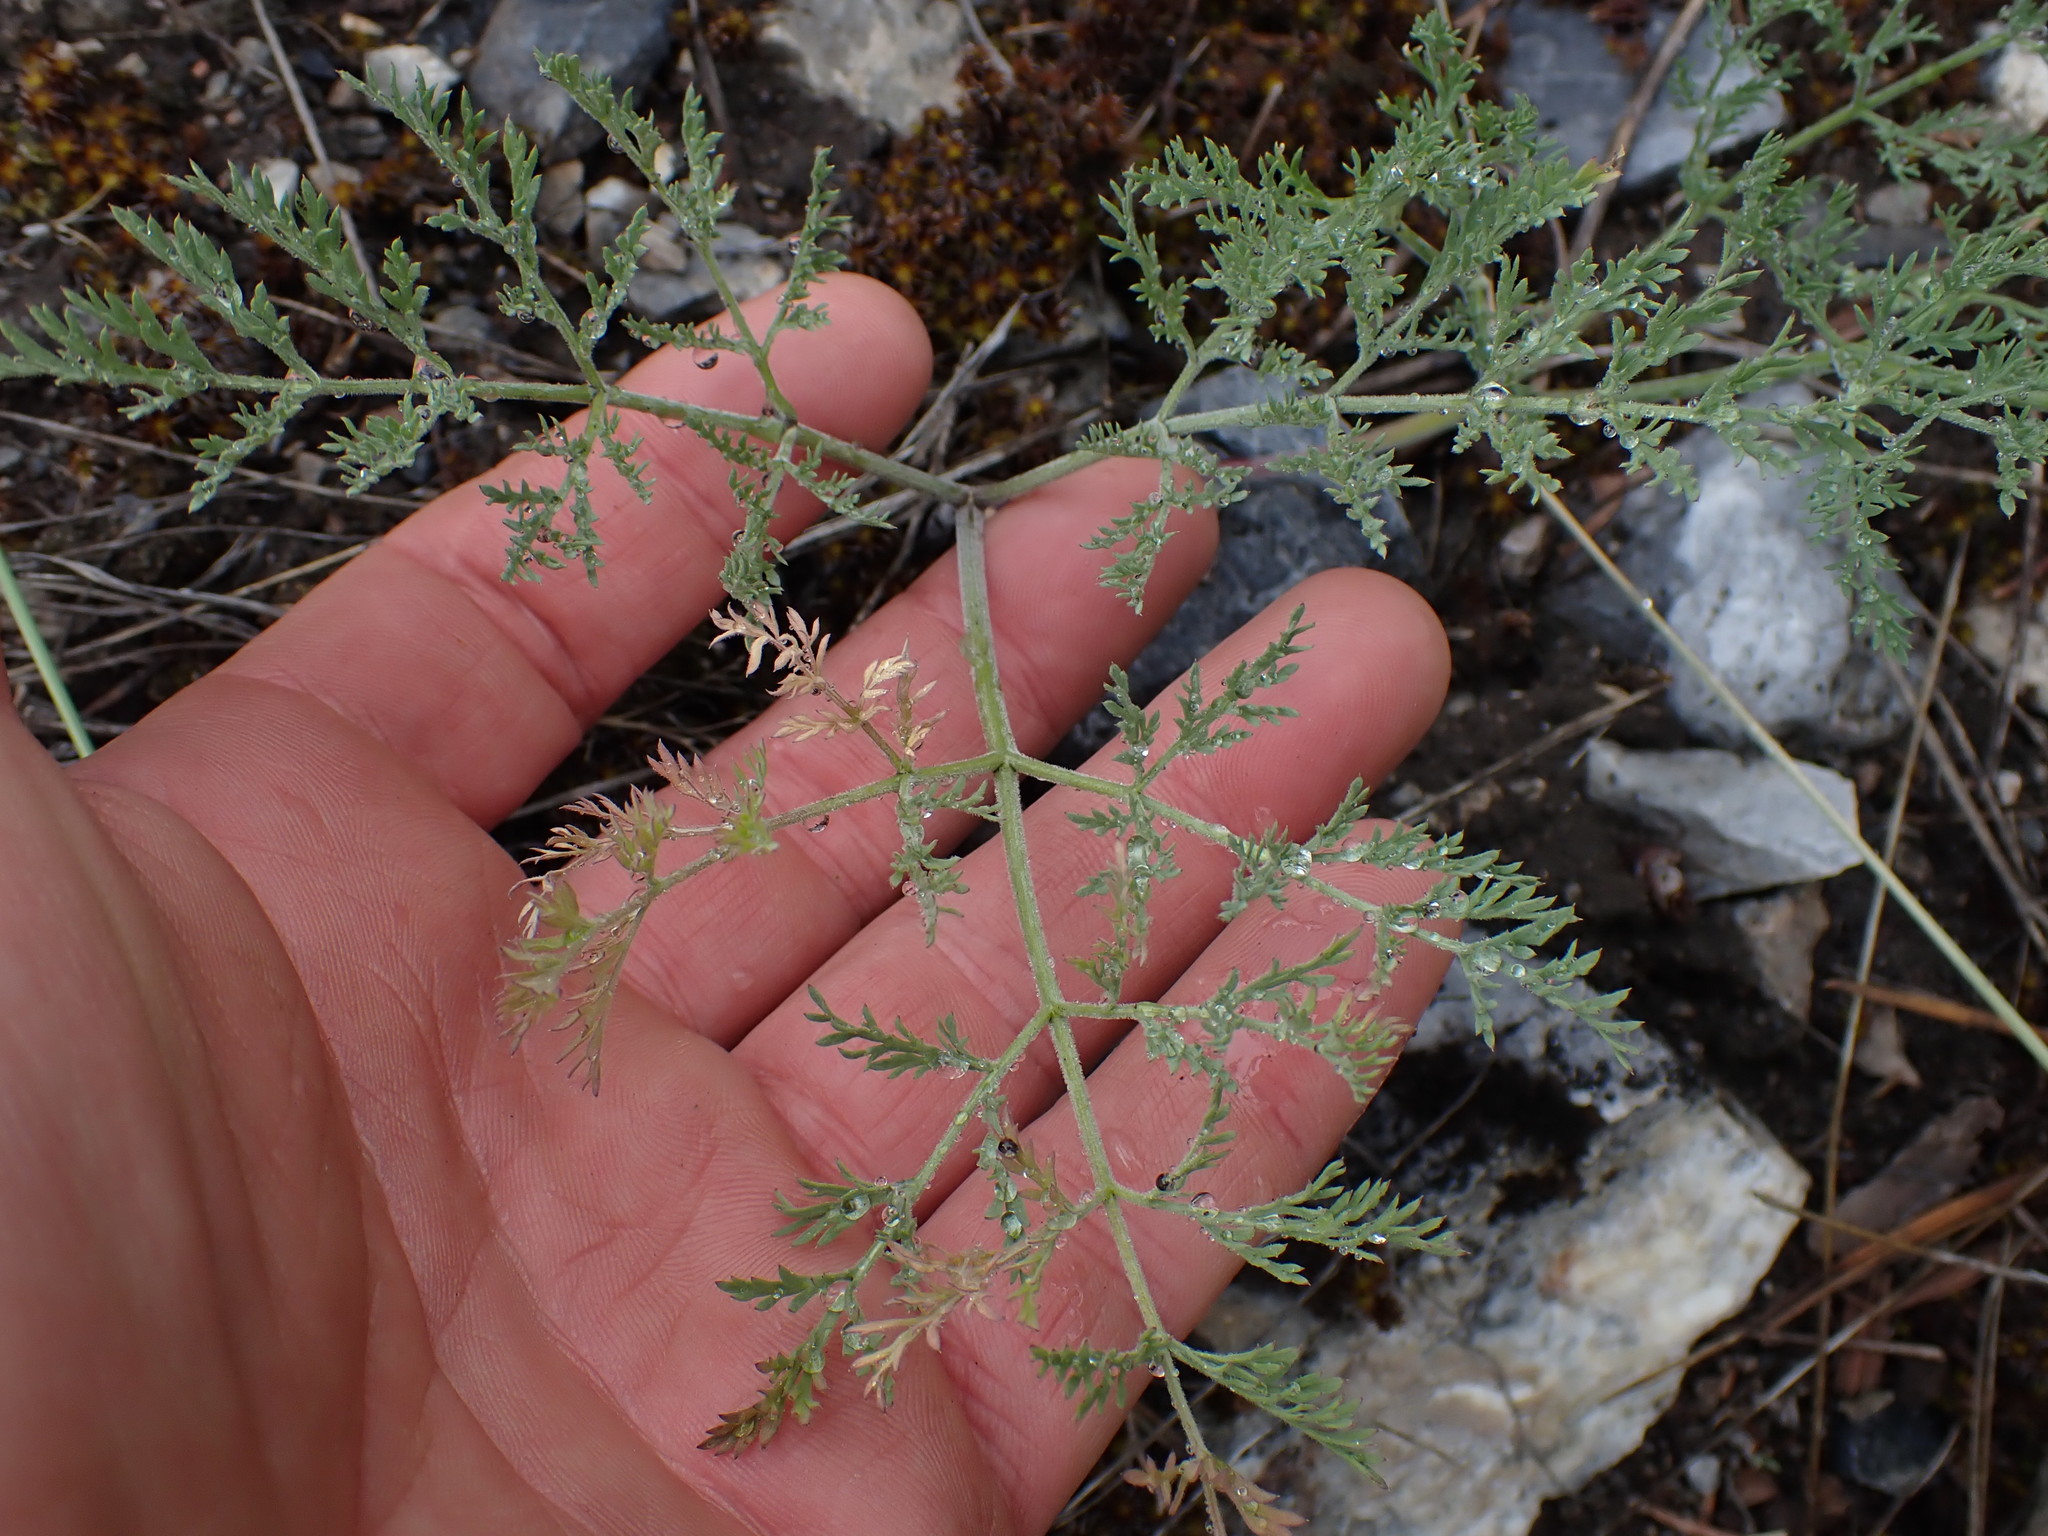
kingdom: Plantae
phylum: Tracheophyta
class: Magnoliopsida
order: Apiales
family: Apiaceae
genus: Lomatium
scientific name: Lomatium macrocarpum
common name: Big-seed biscuitroot
